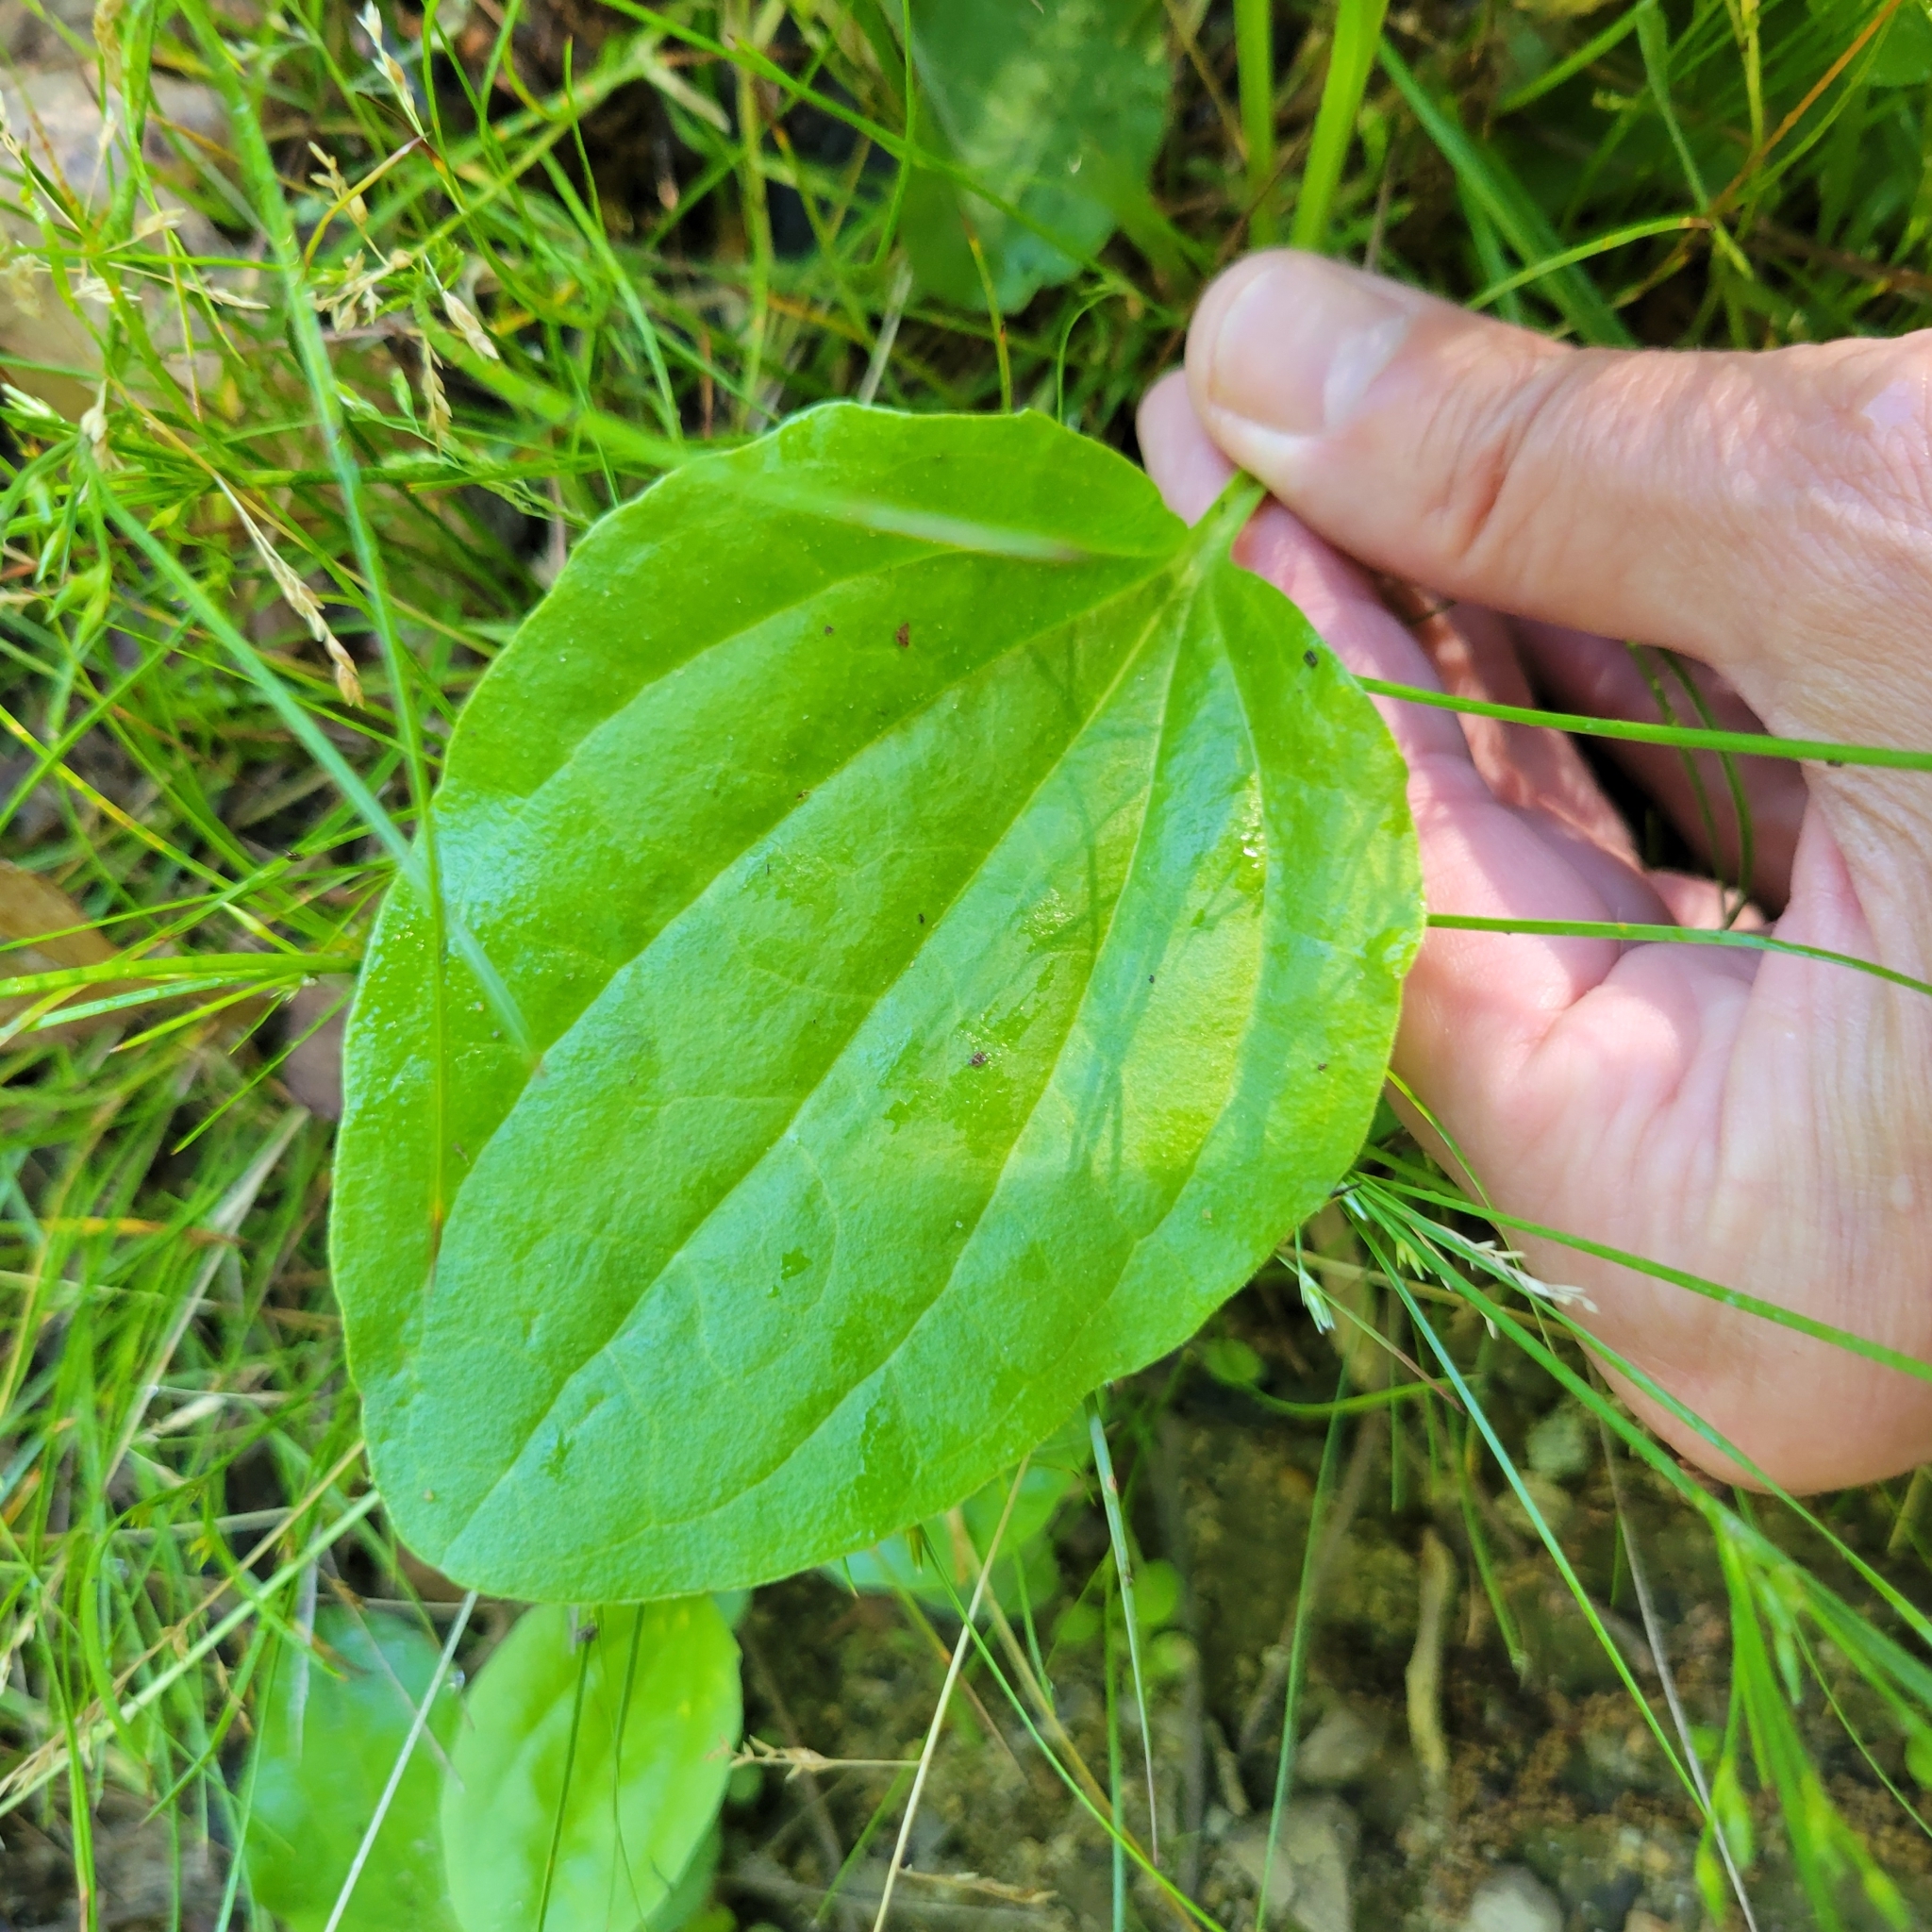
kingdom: Plantae
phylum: Tracheophyta
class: Magnoliopsida
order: Lamiales
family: Plantaginaceae
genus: Plantago
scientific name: Plantago major
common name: Common plantain
